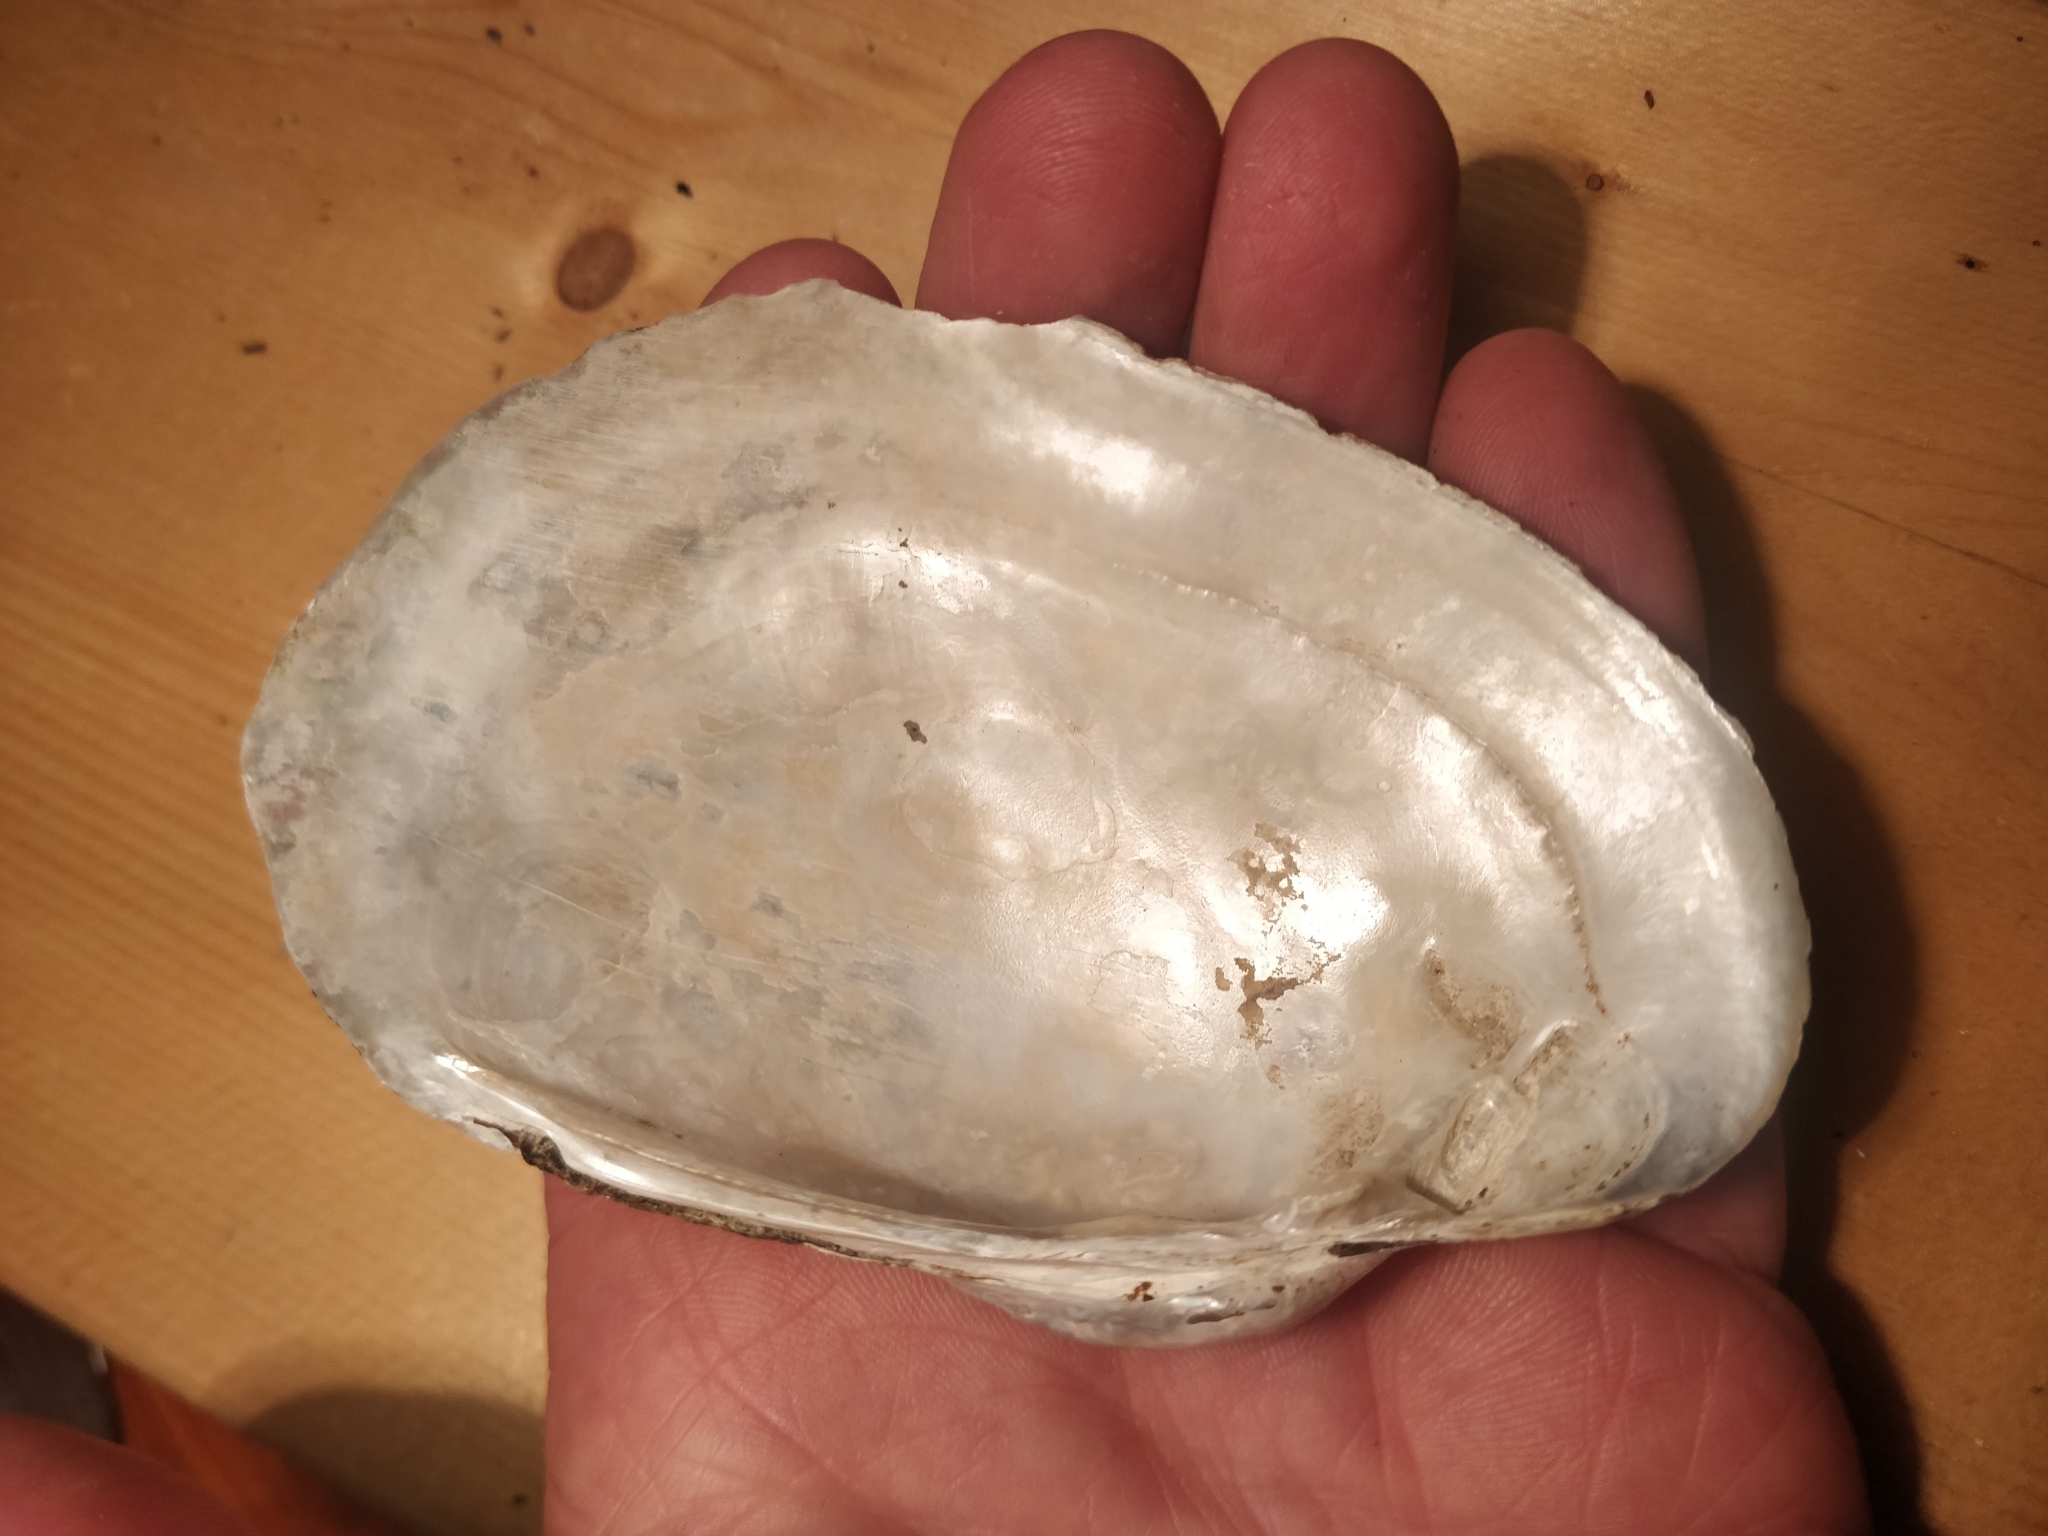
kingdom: Animalia
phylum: Mollusca
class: Bivalvia
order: Unionida
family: Unionidae
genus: Lampsilis
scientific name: Lampsilis cardium
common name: Plain pocketbook
